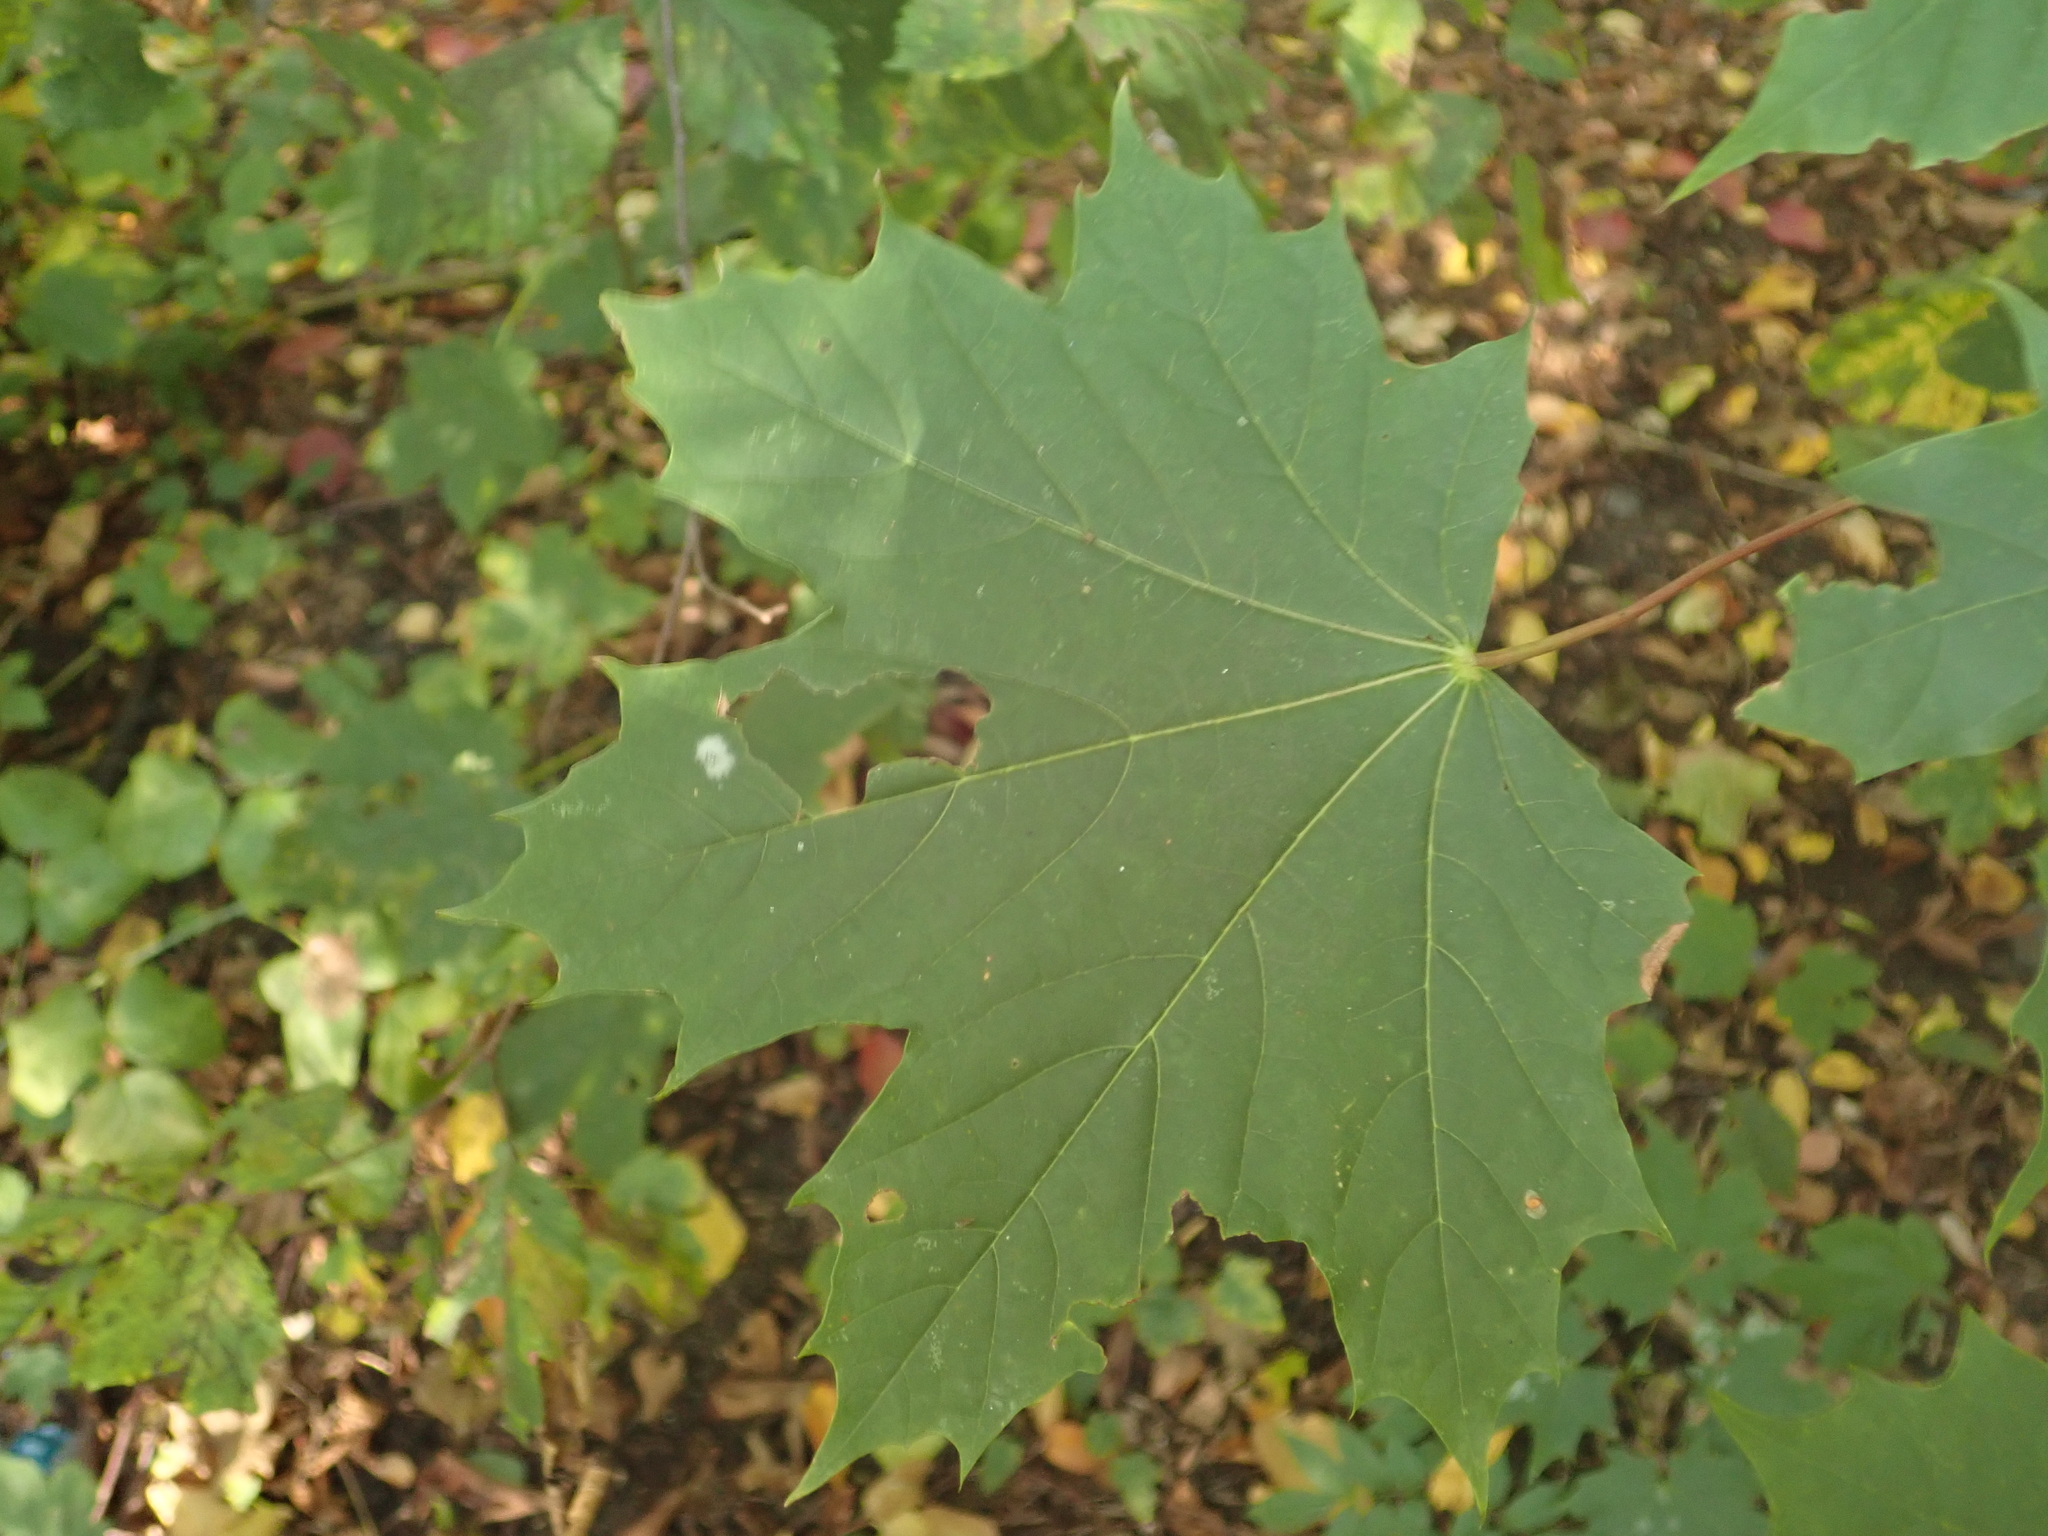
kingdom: Plantae
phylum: Tracheophyta
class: Magnoliopsida
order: Sapindales
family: Sapindaceae
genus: Acer
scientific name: Acer platanoides
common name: Norway maple
